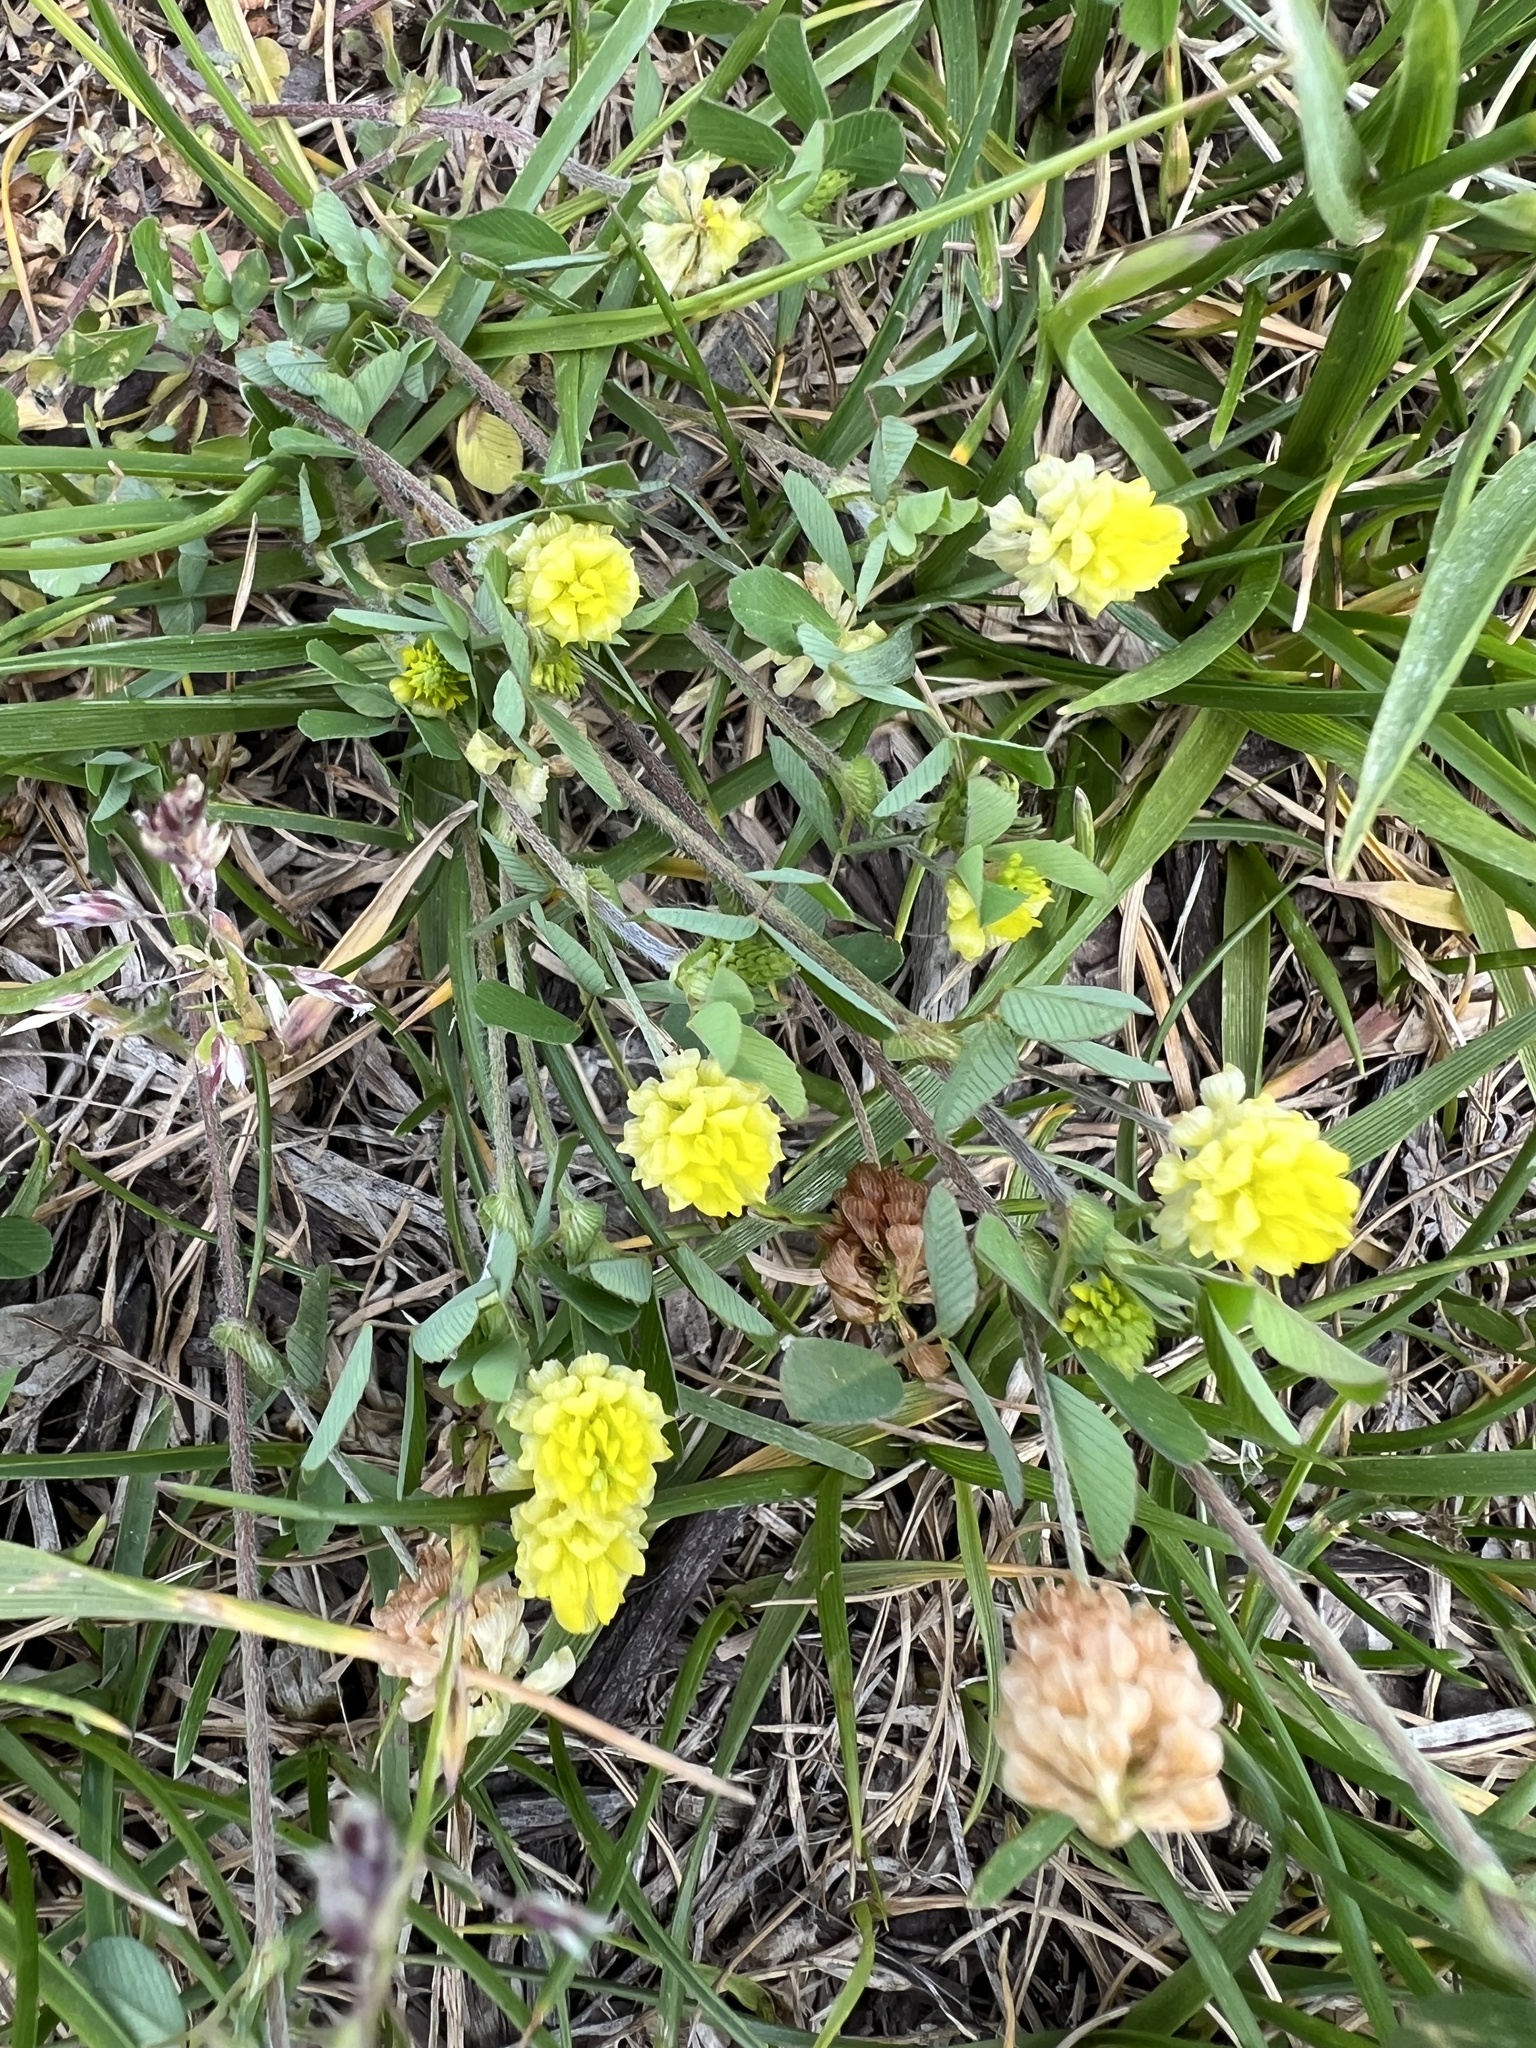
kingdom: Plantae
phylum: Tracheophyta
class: Magnoliopsida
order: Fabales
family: Fabaceae
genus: Trifolium
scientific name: Trifolium campestre
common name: Field clover
